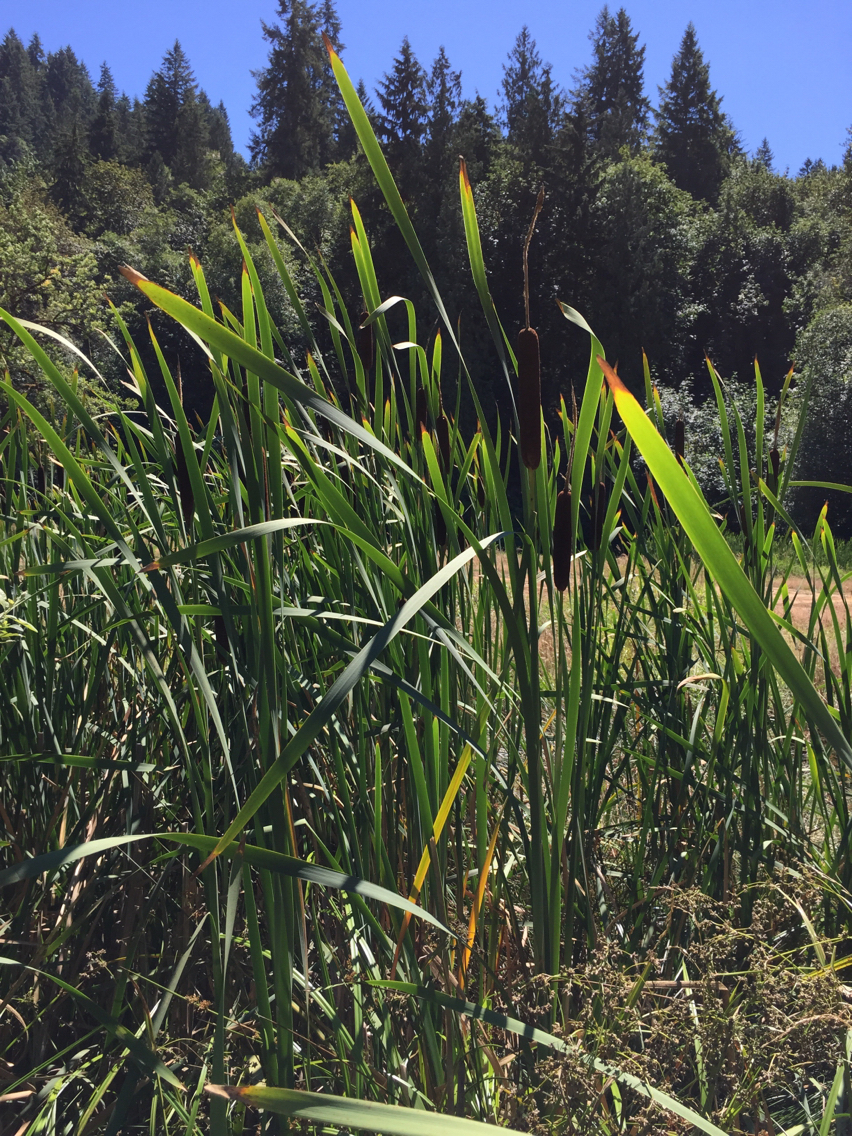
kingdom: Plantae
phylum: Tracheophyta
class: Liliopsida
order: Poales
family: Typhaceae
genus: Typha
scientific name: Typha latifolia
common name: Broadleaf cattail
